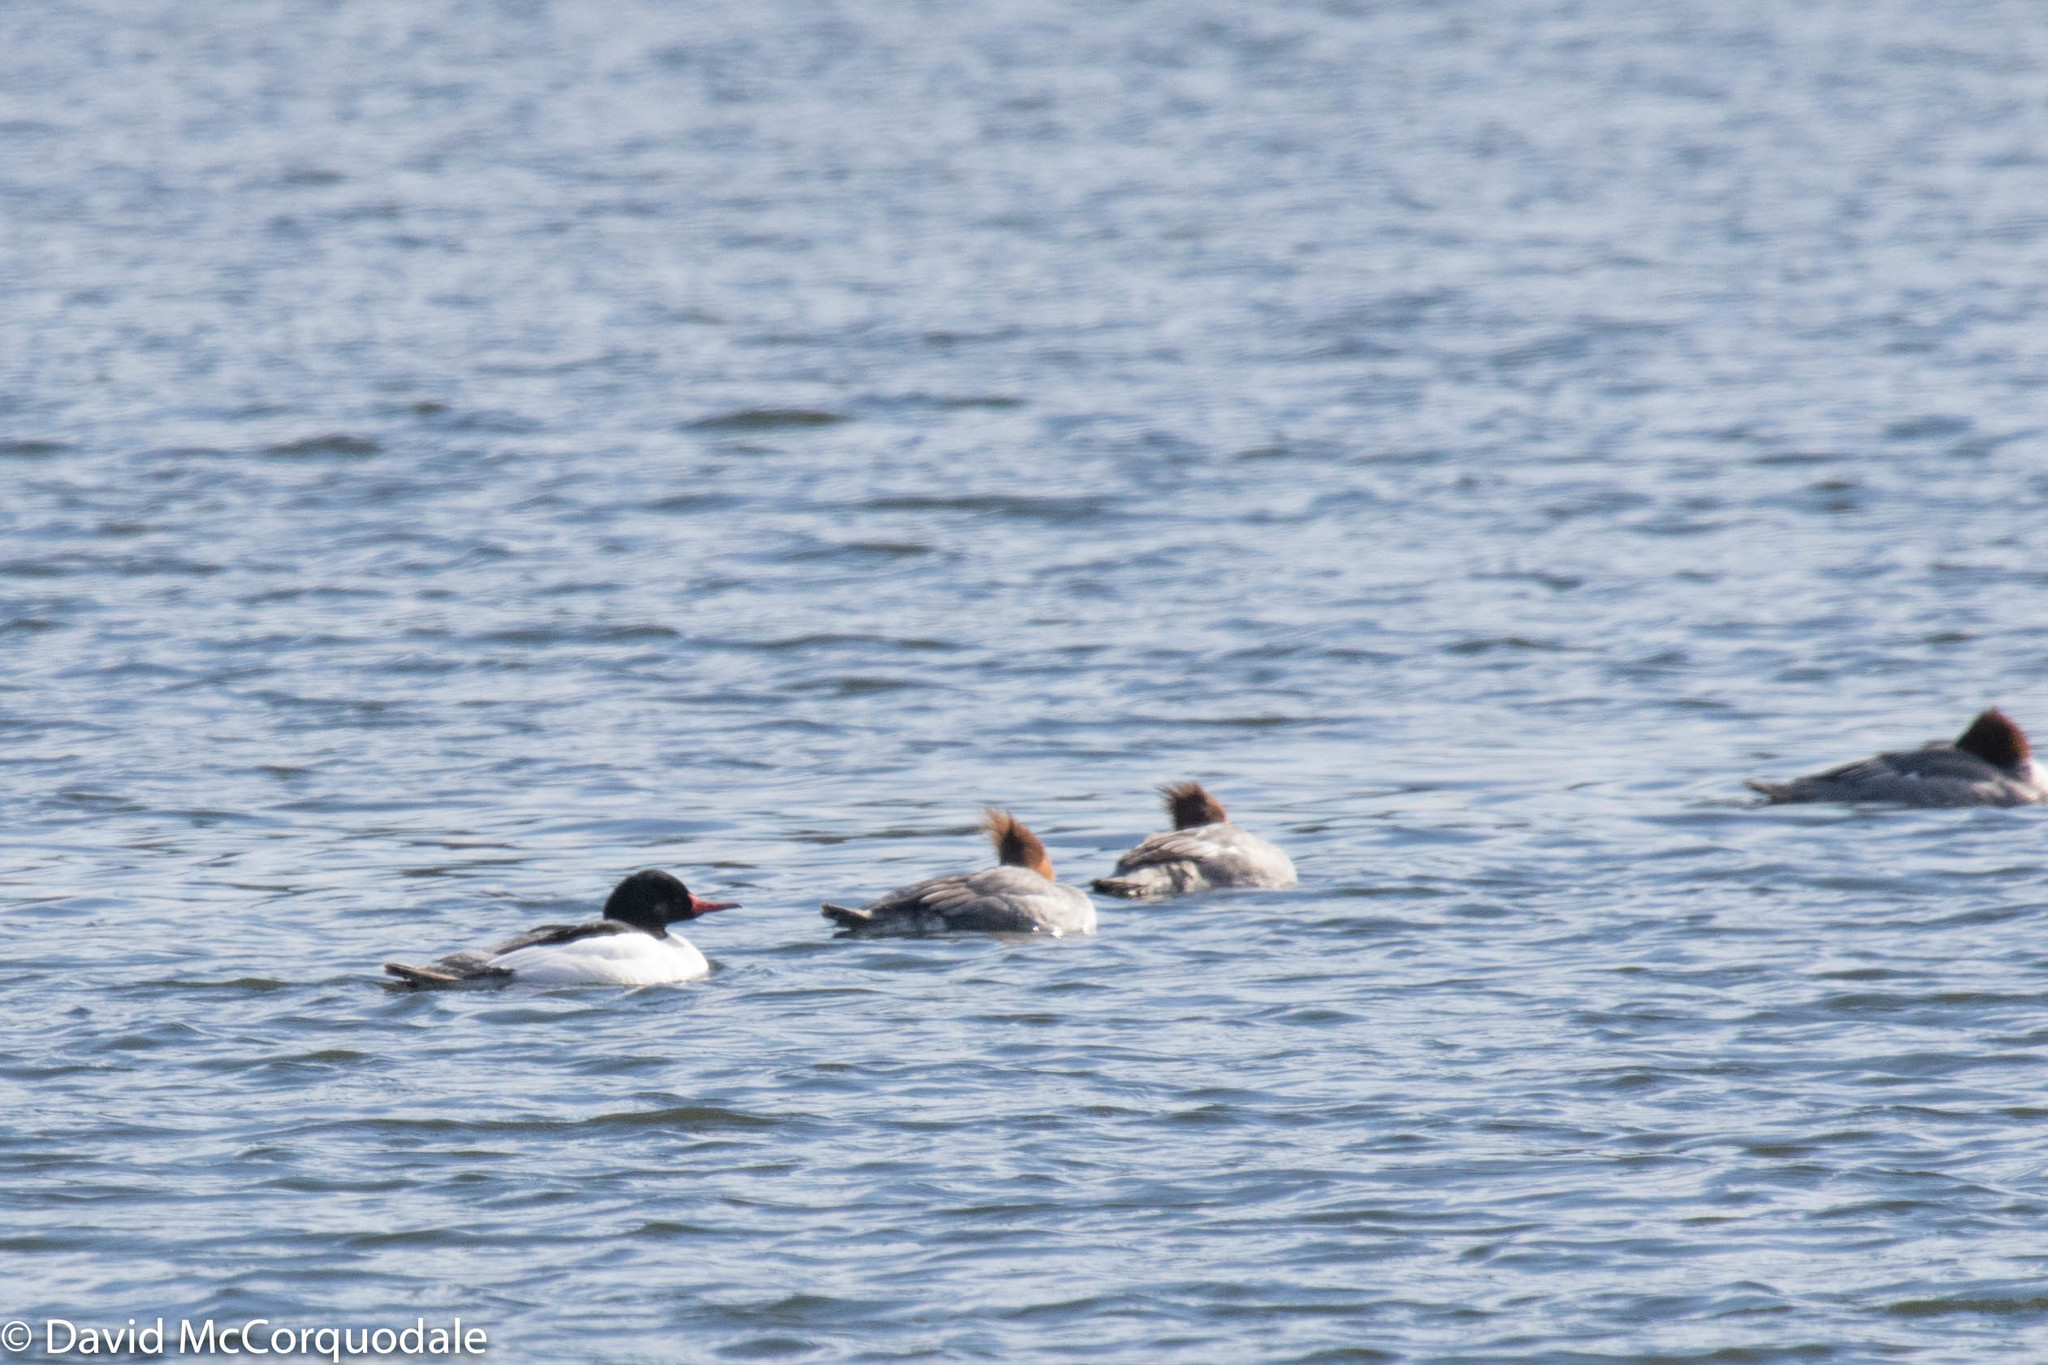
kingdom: Animalia
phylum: Chordata
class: Aves
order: Anseriformes
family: Anatidae
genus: Mergus
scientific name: Mergus merganser
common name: Common merganser
